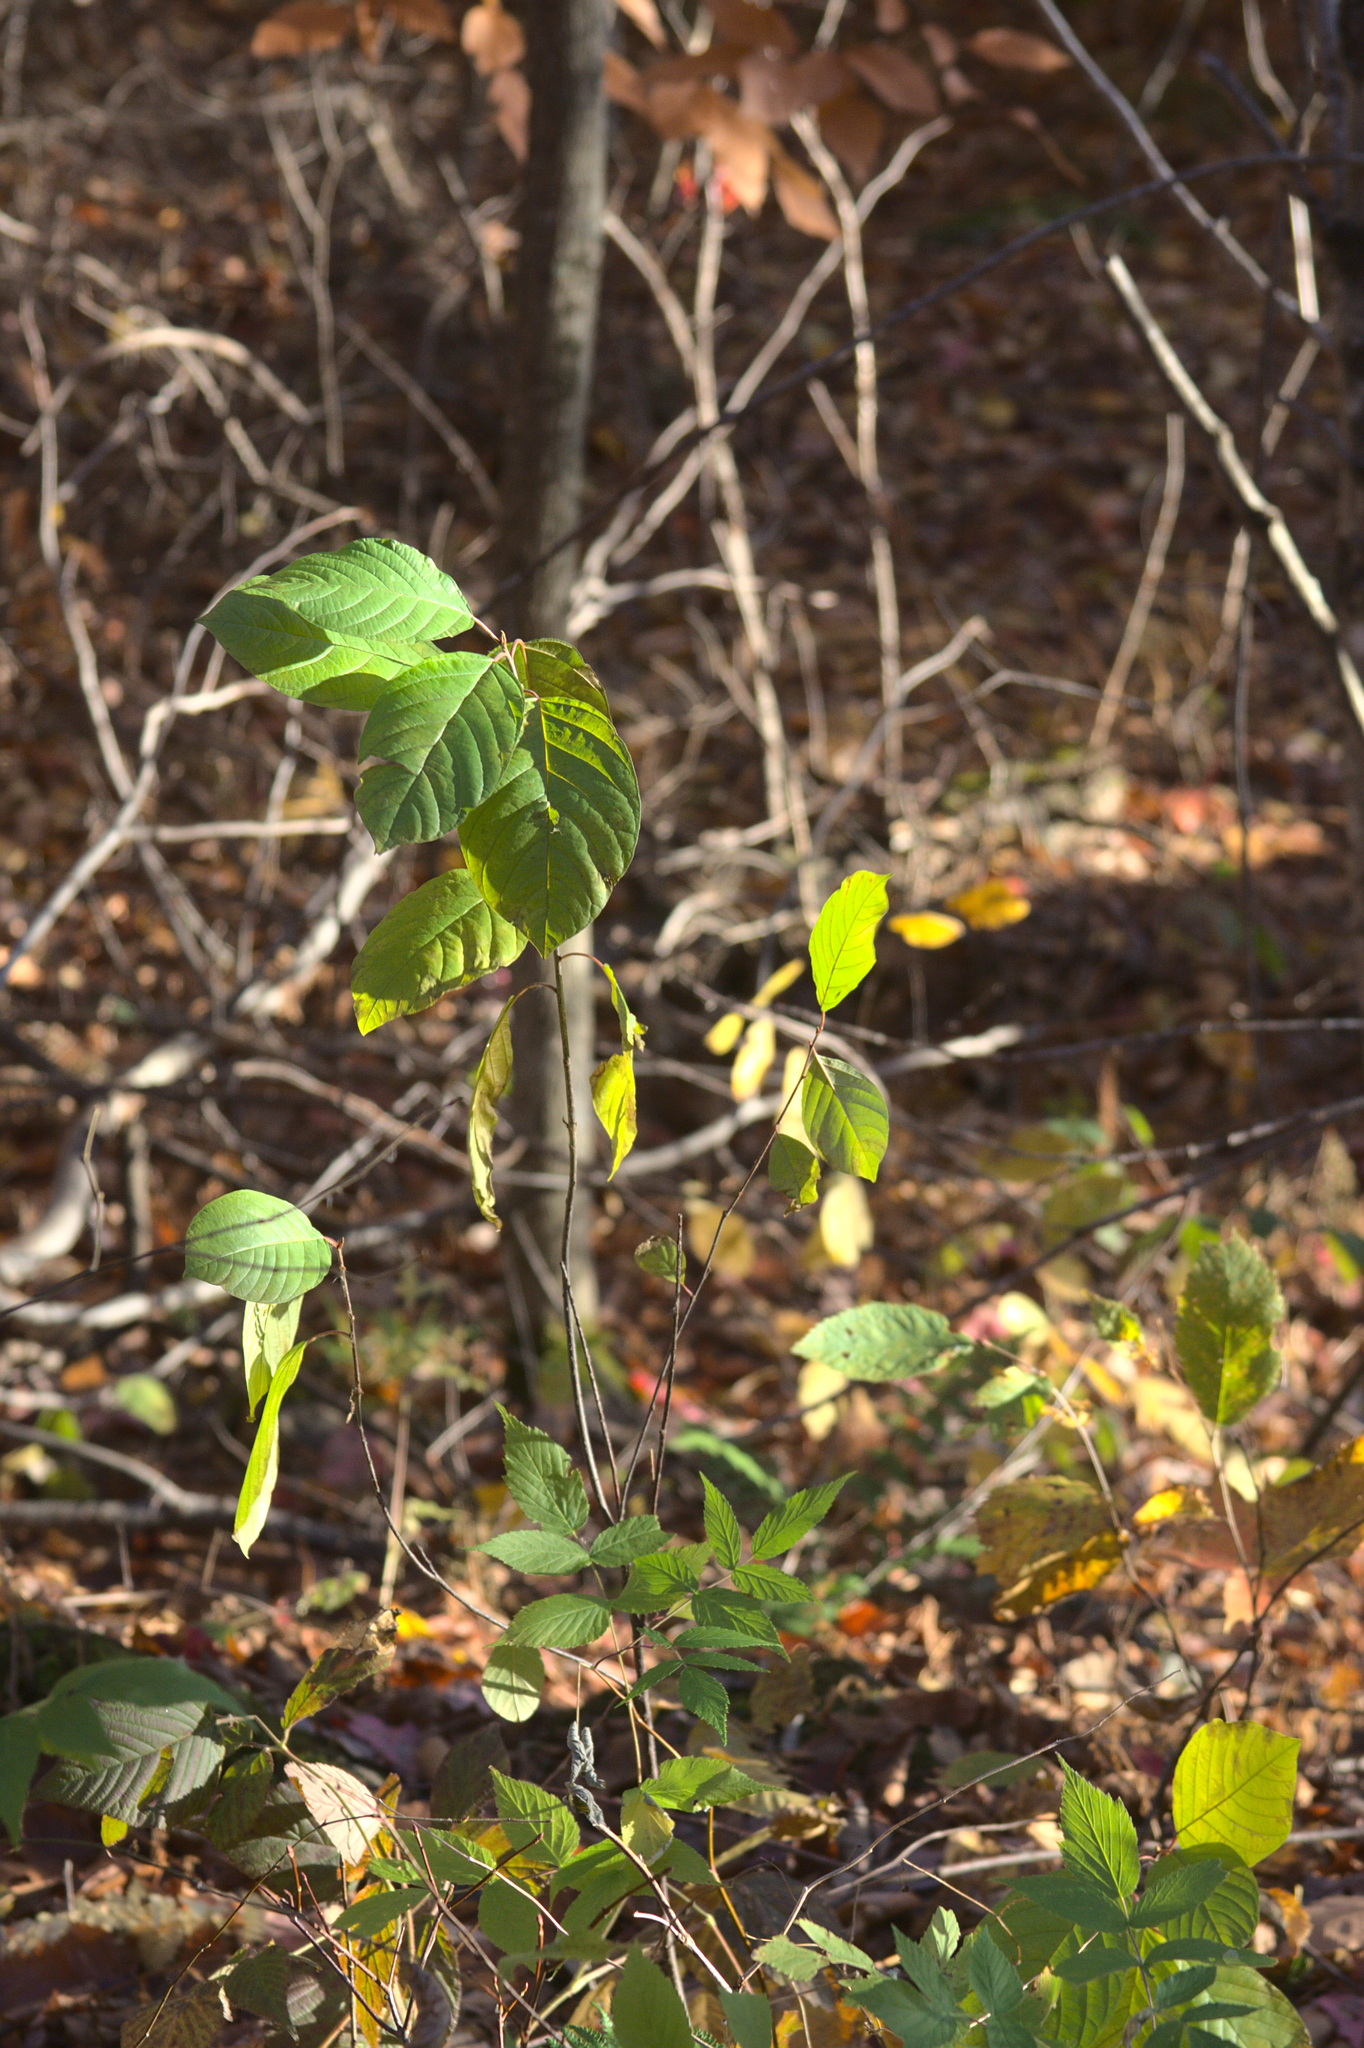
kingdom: Plantae
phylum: Tracheophyta
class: Magnoliopsida
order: Rosales
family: Rhamnaceae
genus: Frangula
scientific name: Frangula alnus
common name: Alder buckthorn
